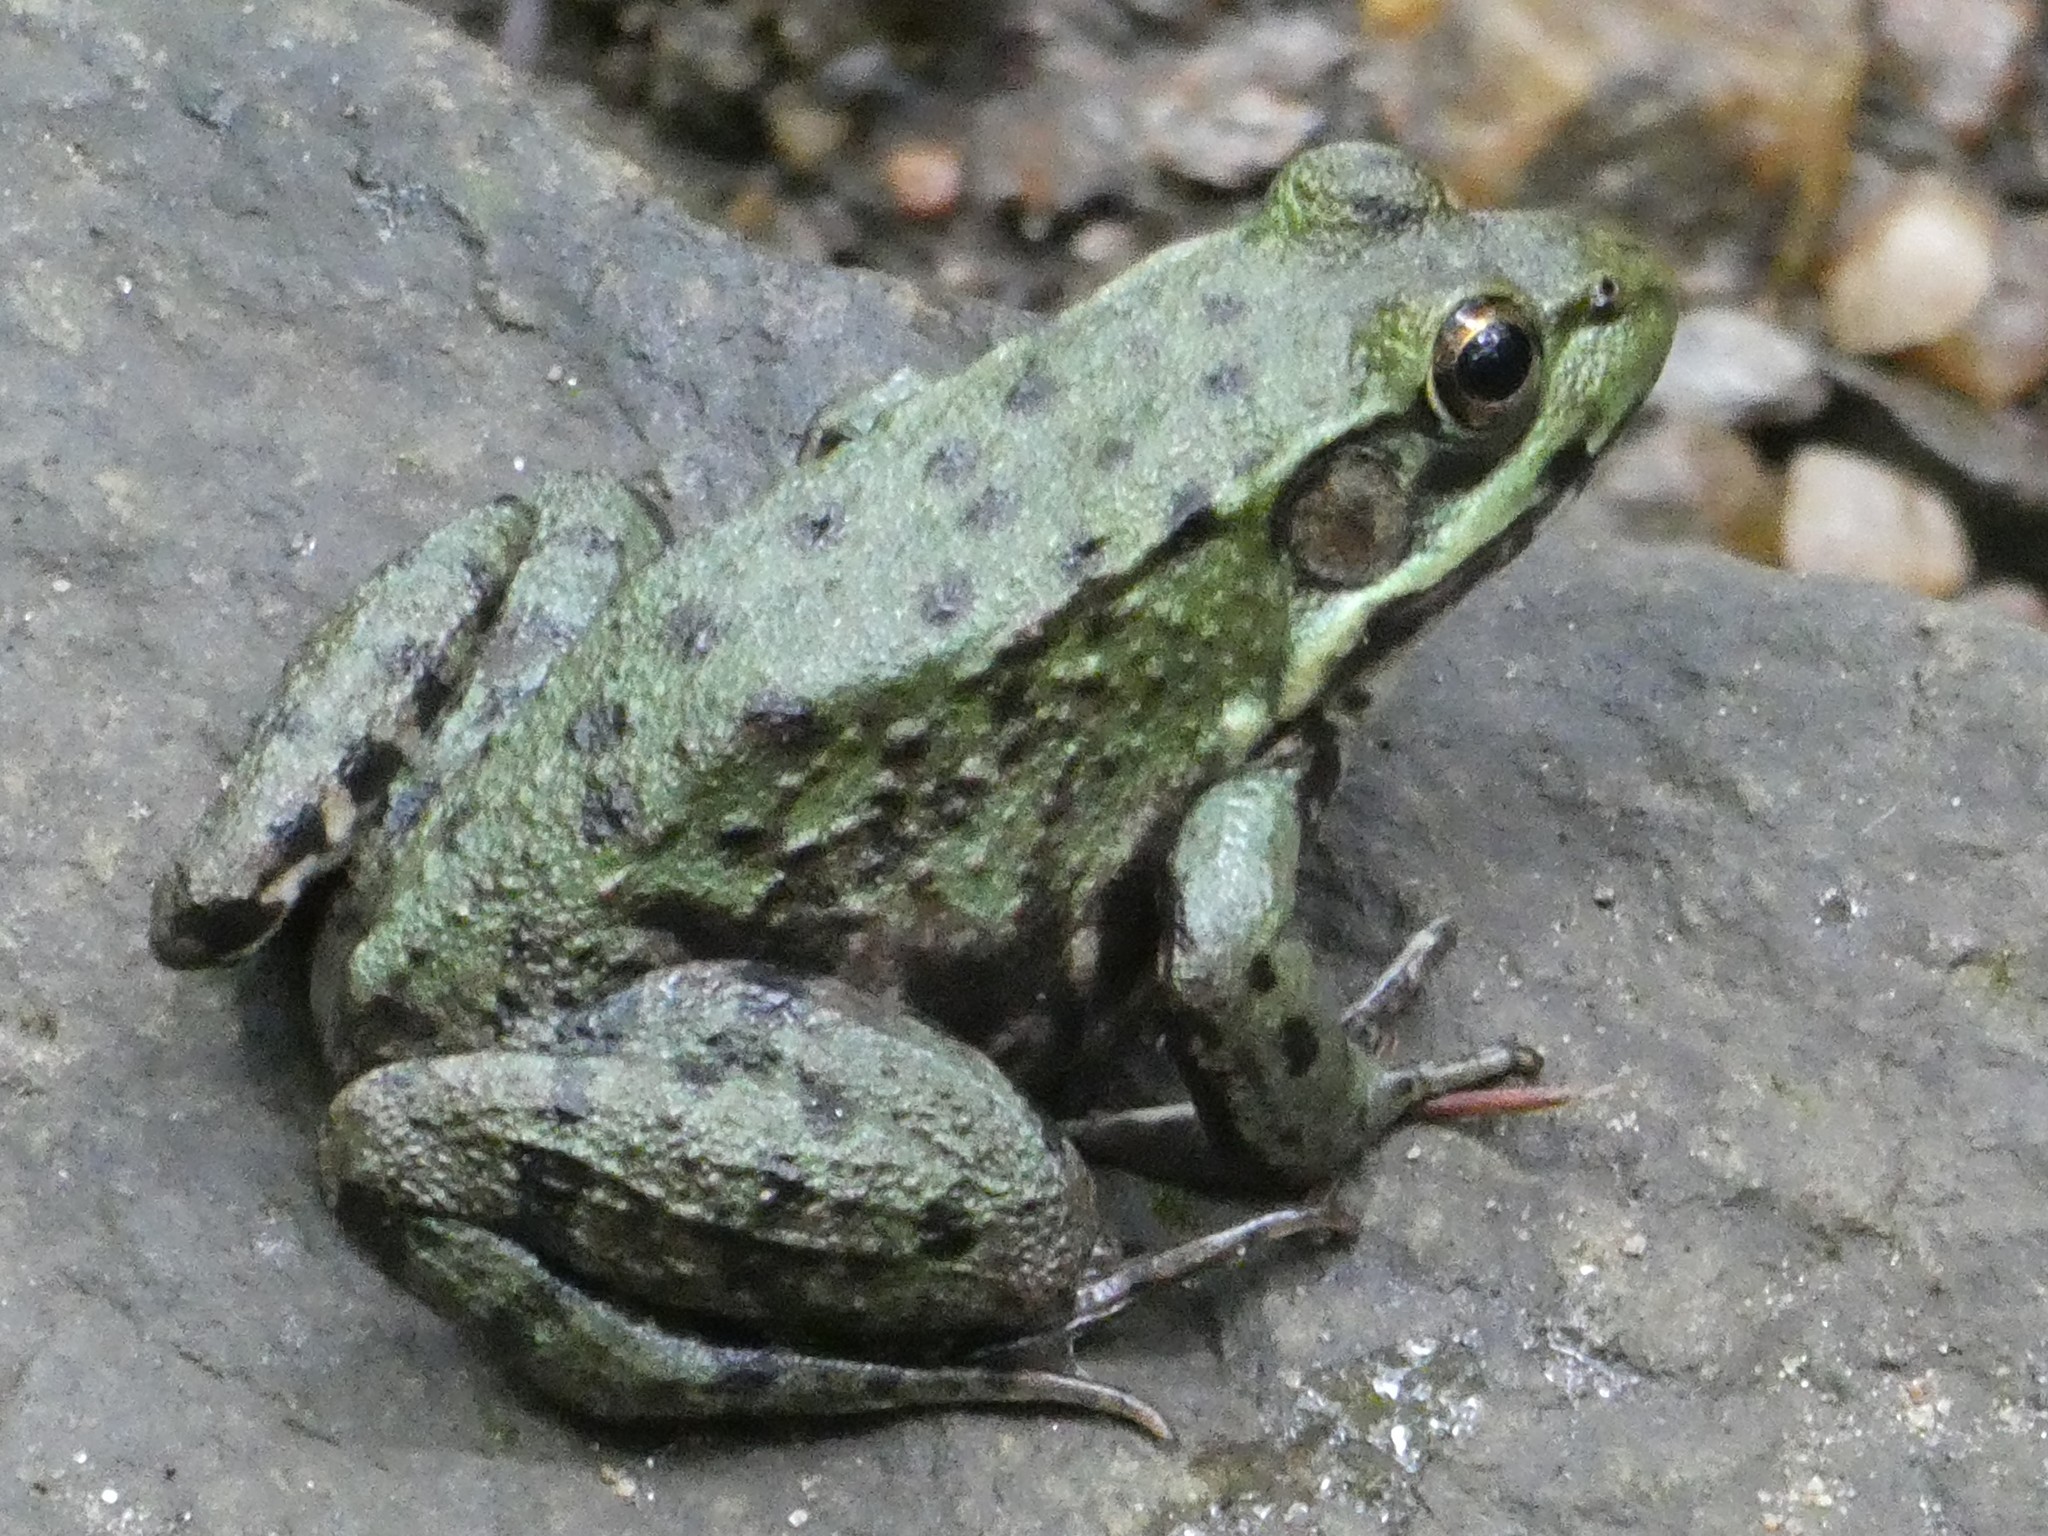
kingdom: Animalia
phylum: Chordata
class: Amphibia
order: Anura
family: Ranidae
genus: Lithobates
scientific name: Lithobates clamitans
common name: Green frog
